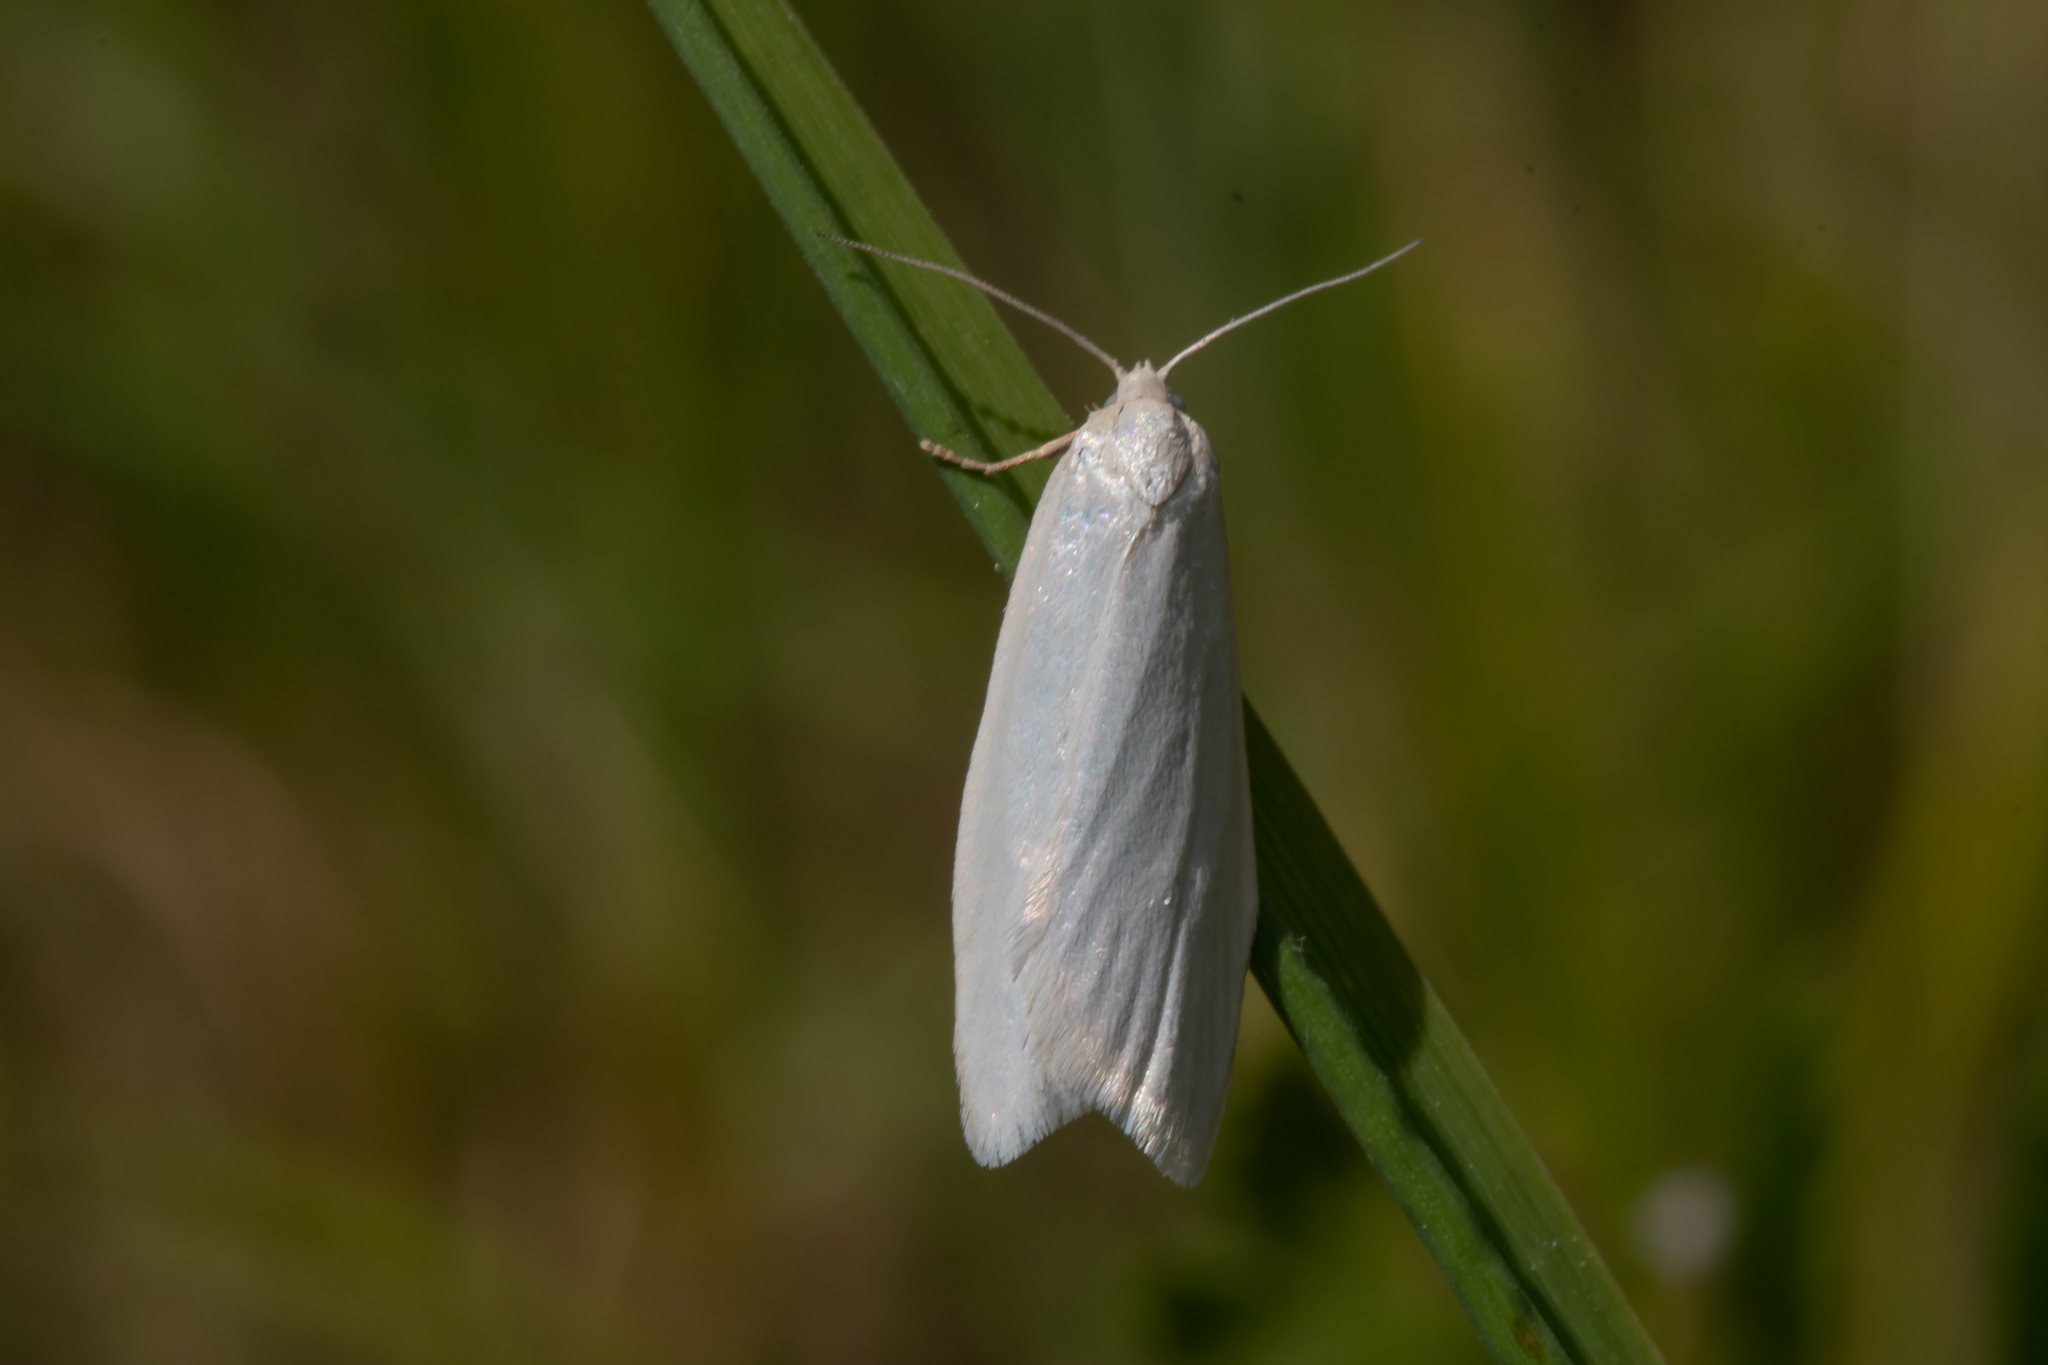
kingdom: Animalia
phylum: Arthropoda
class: Insecta
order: Lepidoptera
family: Tortricidae
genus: Eana
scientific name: Eana argentana
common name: Silver shade
